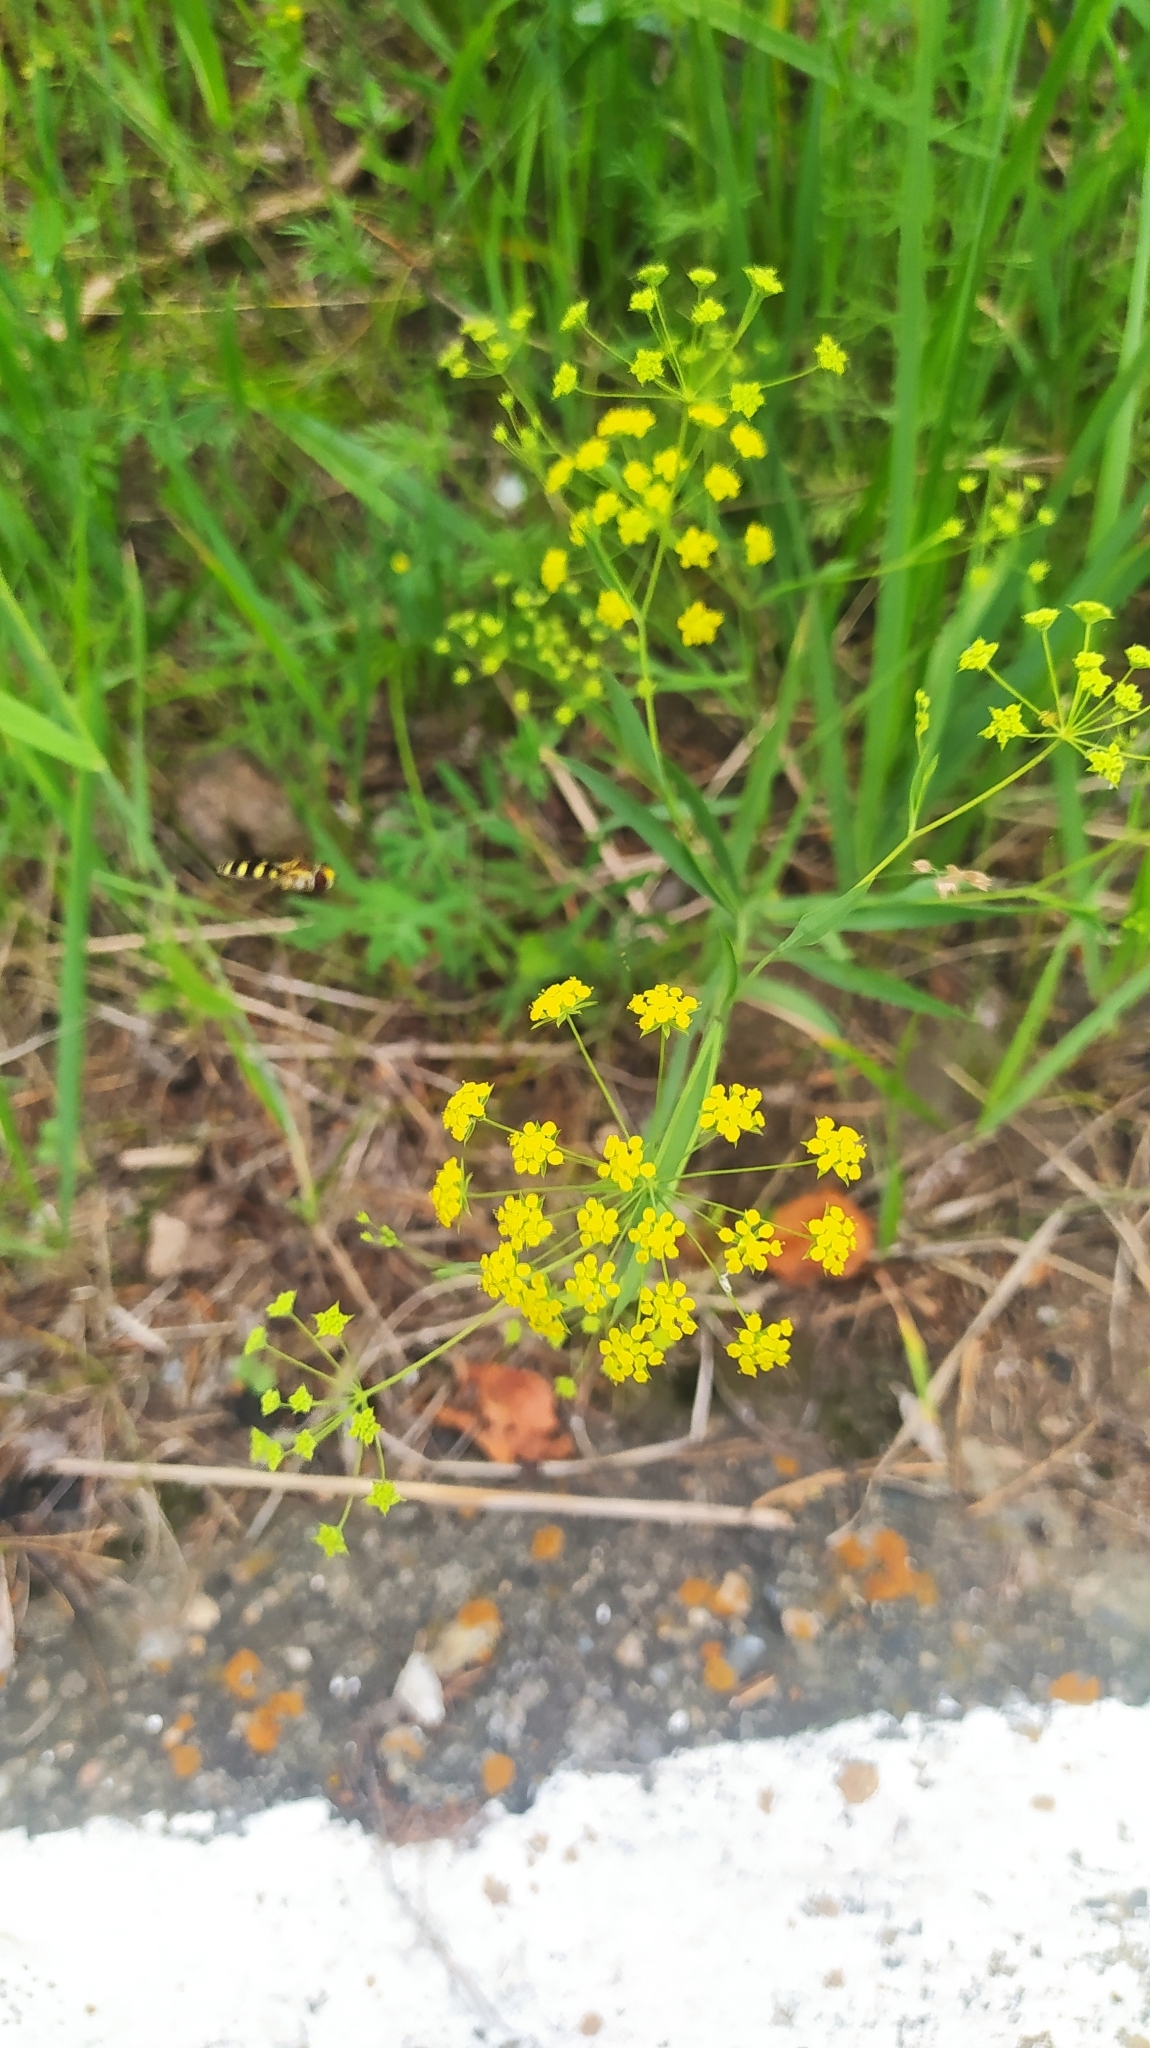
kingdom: Plantae
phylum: Tracheophyta
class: Magnoliopsida
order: Apiales
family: Apiaceae
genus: Bupleurum
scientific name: Bupleurum scorzonerifolium
